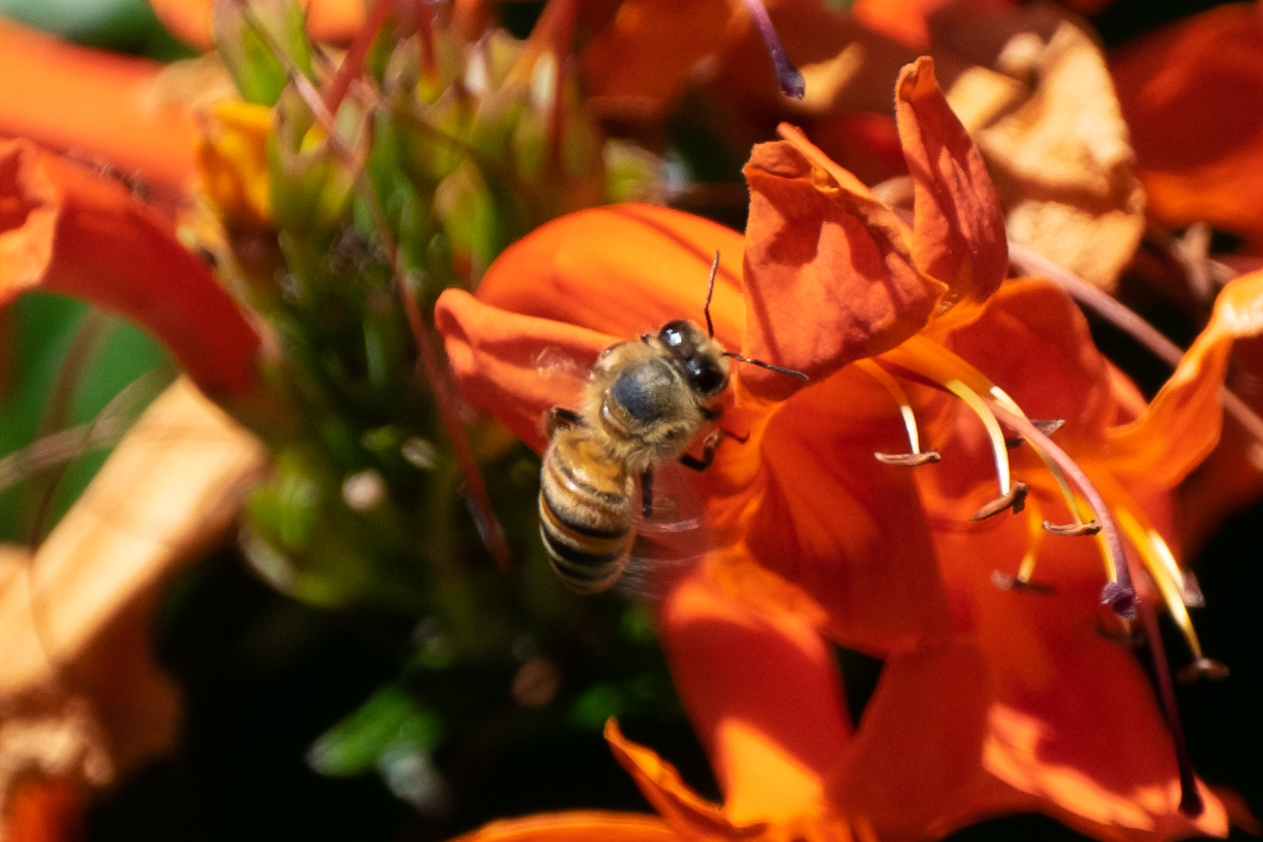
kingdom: Animalia
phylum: Arthropoda
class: Insecta
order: Hymenoptera
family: Apidae
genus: Apis
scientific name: Apis mellifera
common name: Honey bee
